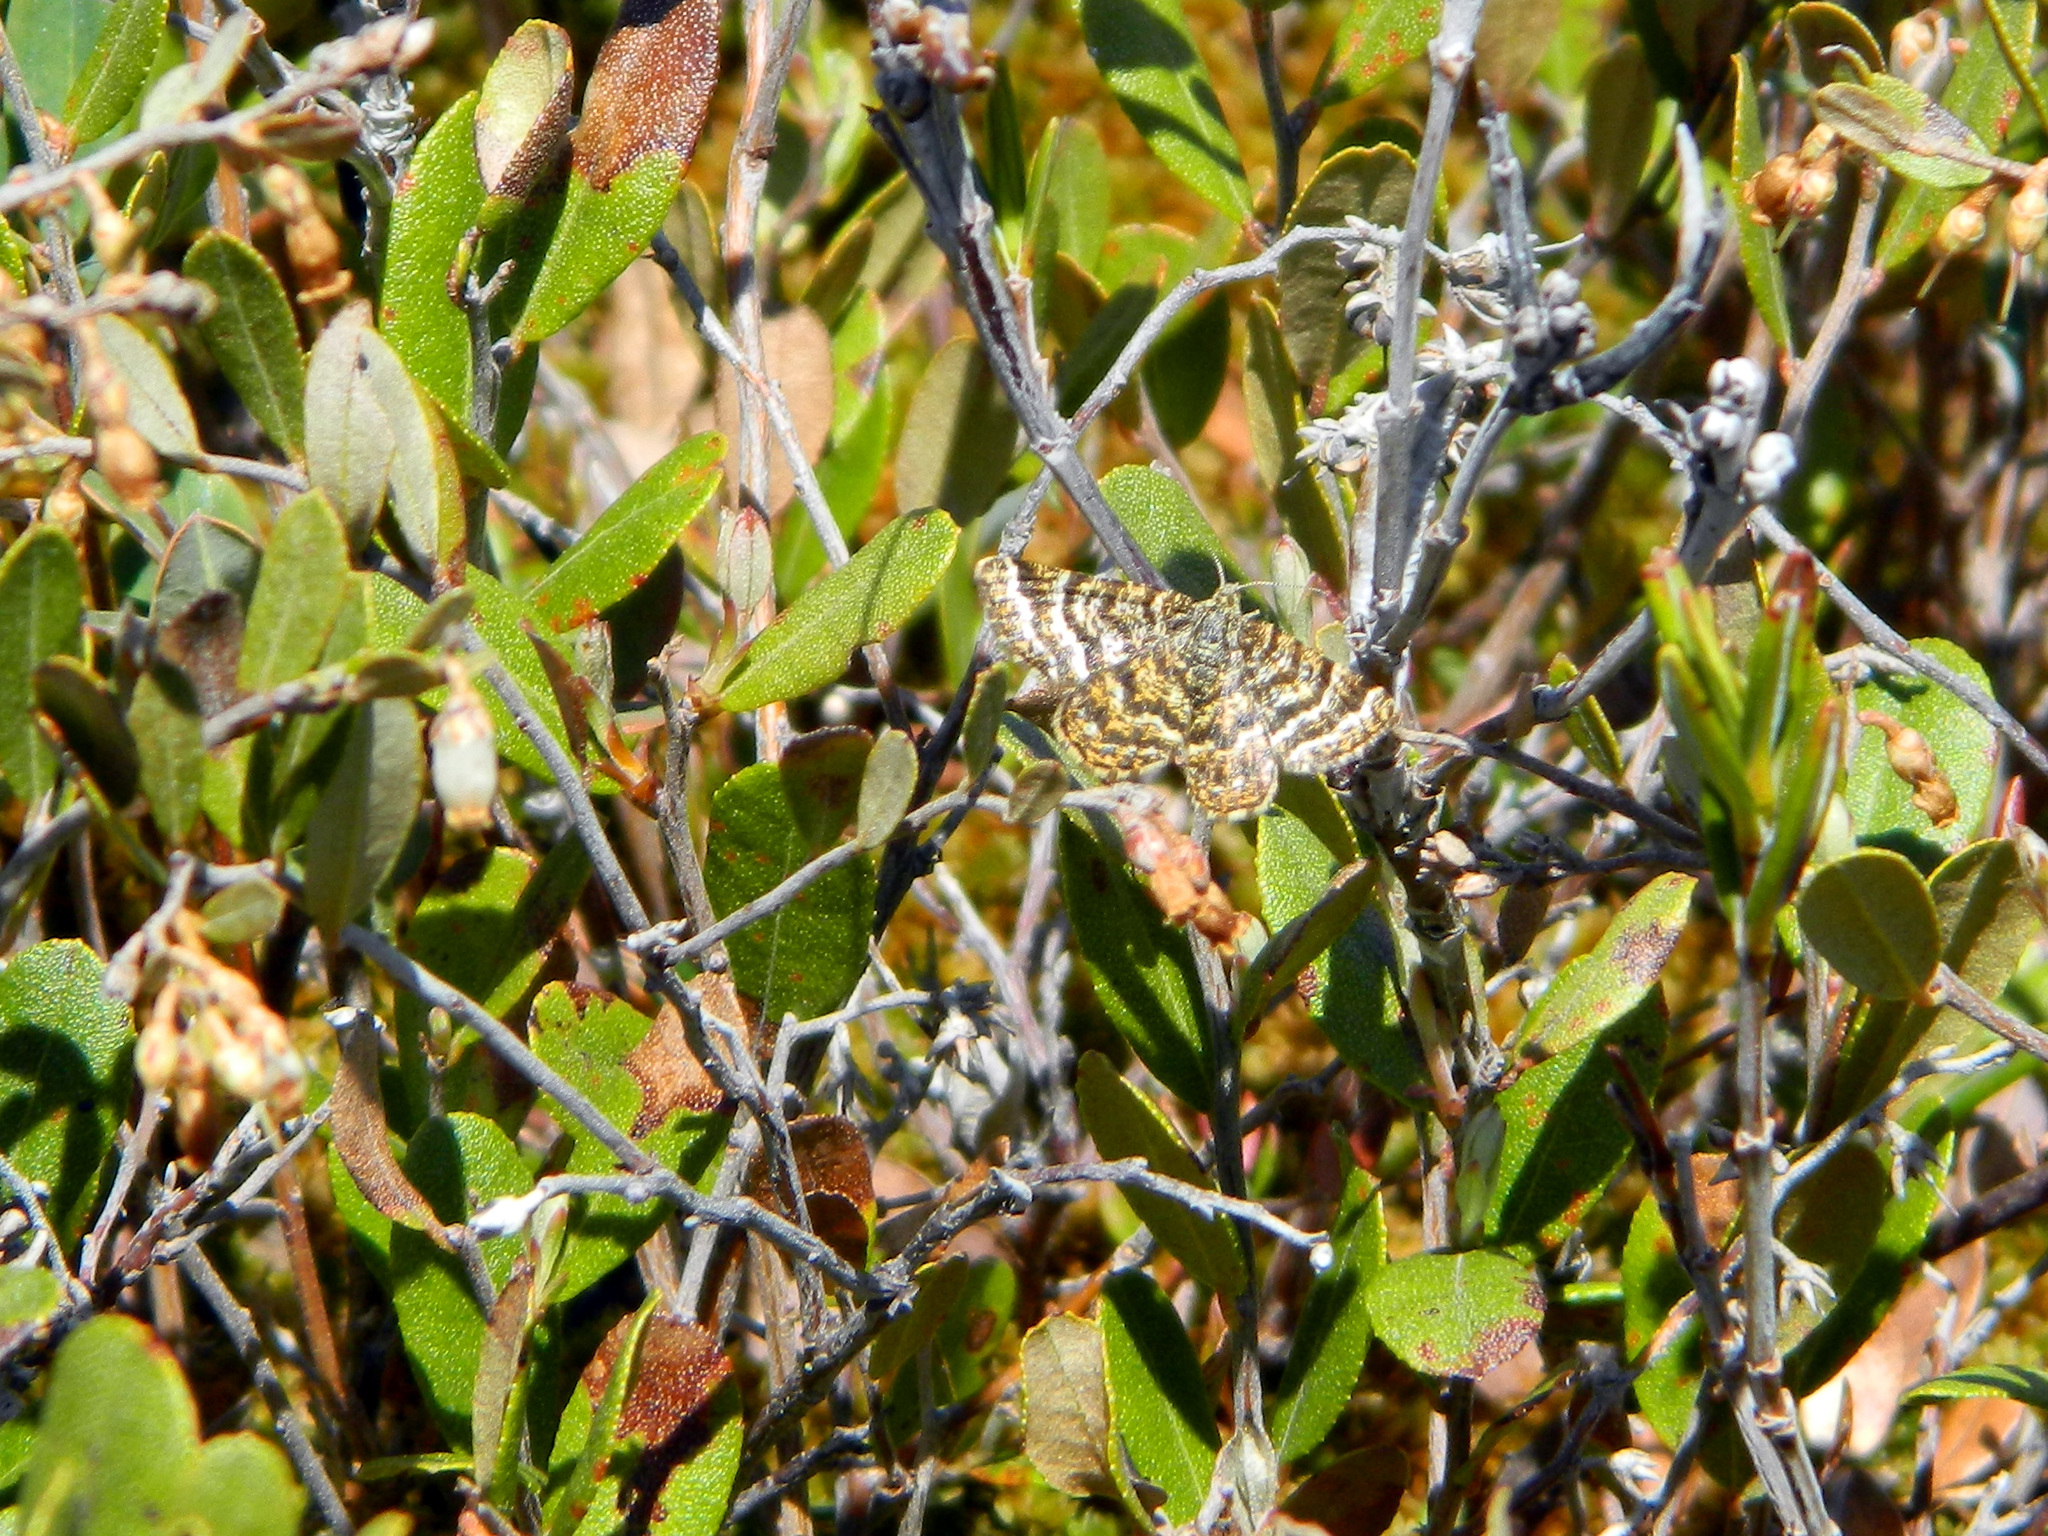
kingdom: Animalia
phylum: Arthropoda
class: Insecta
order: Lepidoptera
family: Geometridae
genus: Macaria
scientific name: Macaria truncataria
